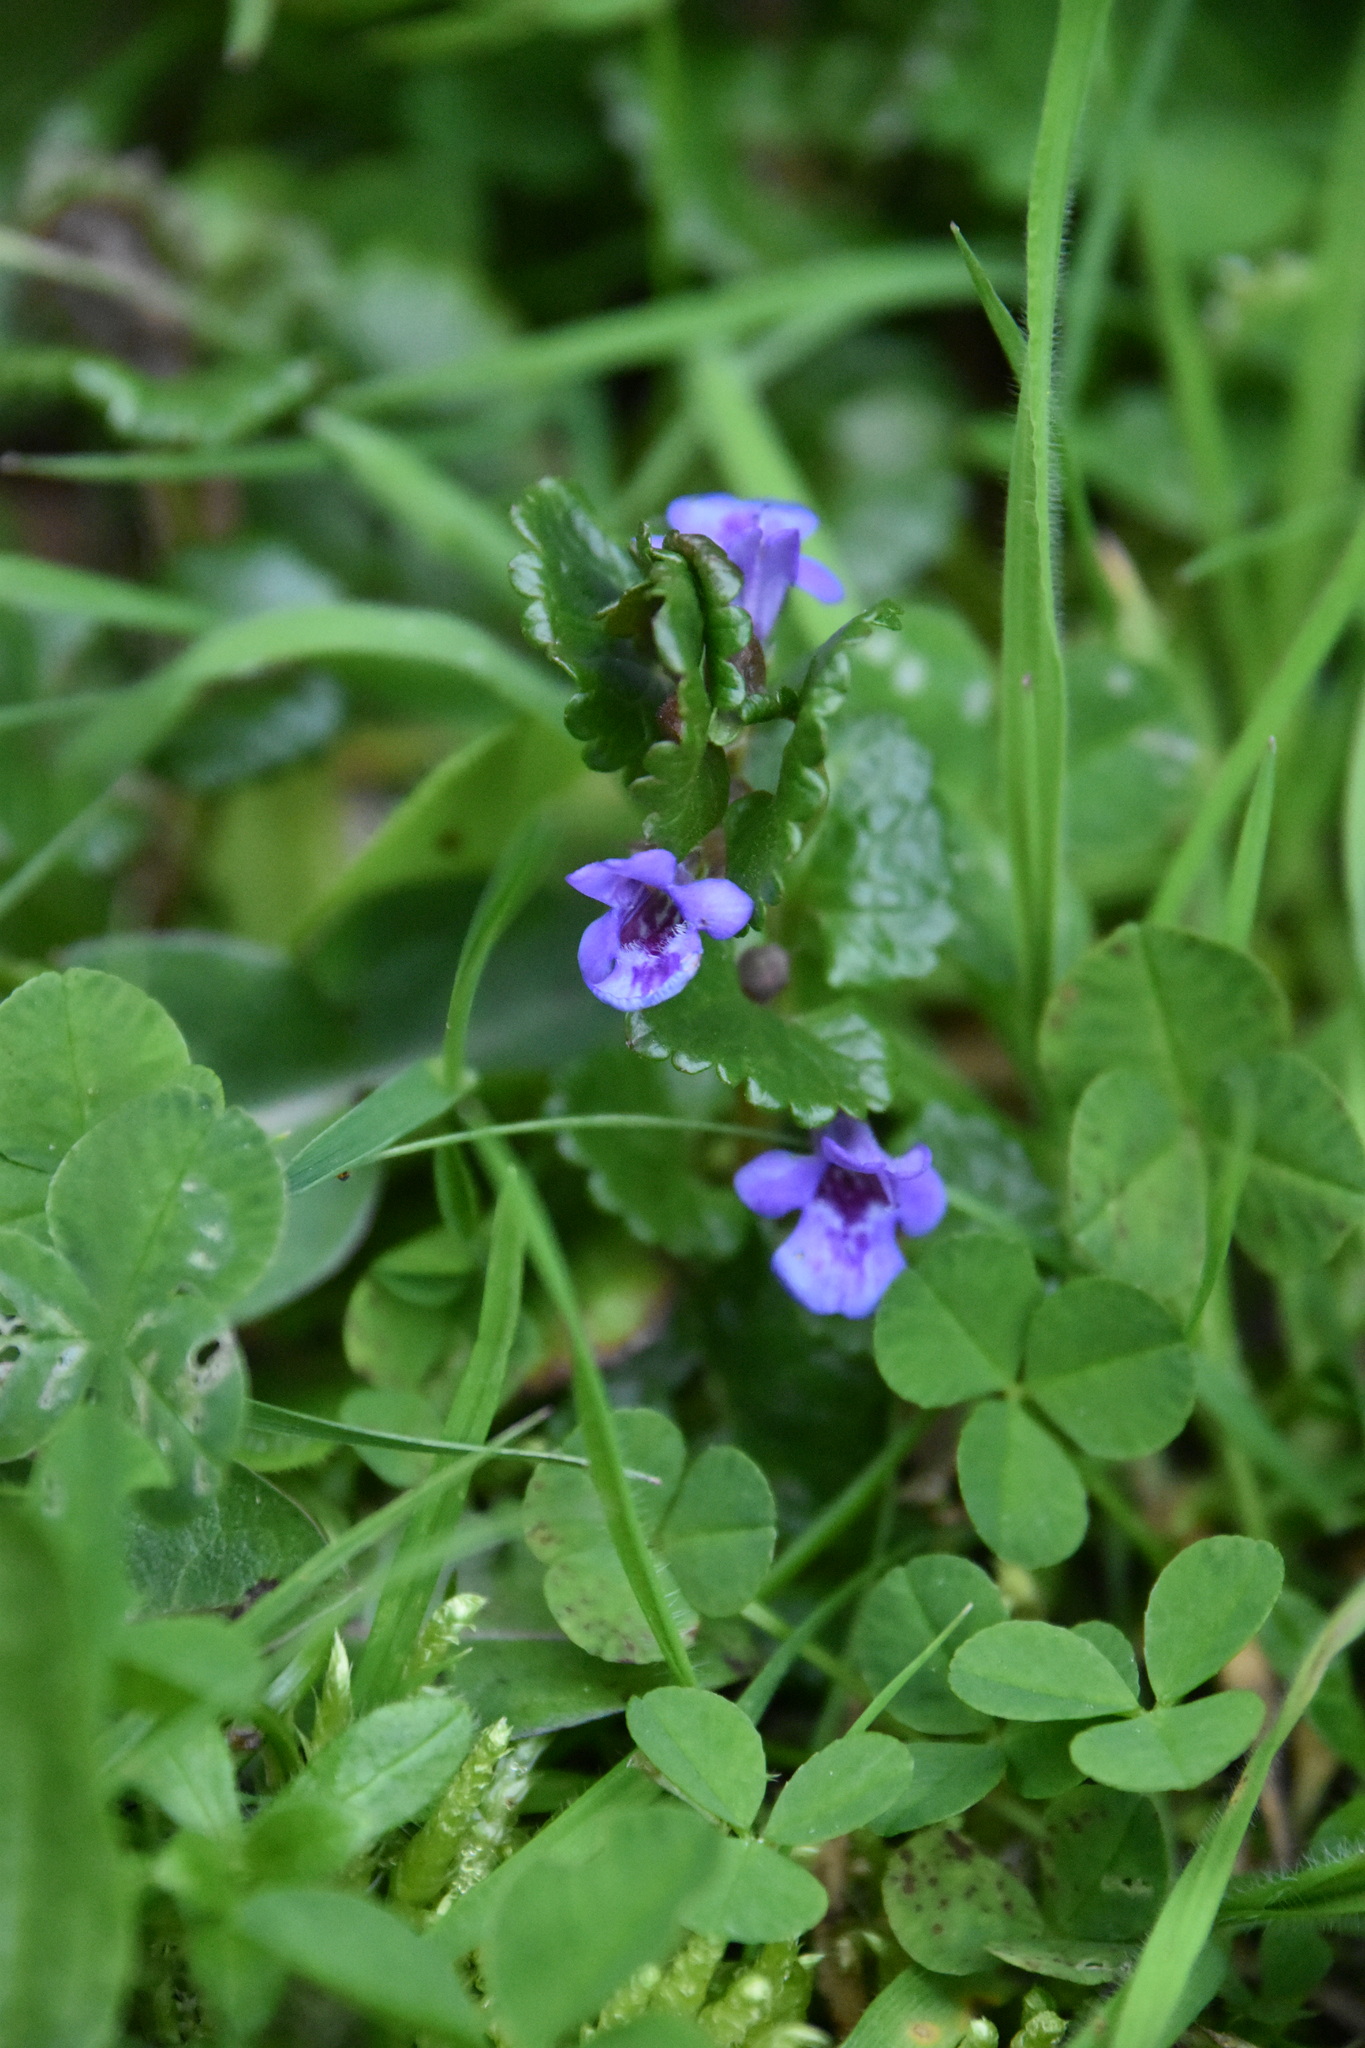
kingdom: Plantae
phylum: Tracheophyta
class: Magnoliopsida
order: Lamiales
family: Lamiaceae
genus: Glechoma
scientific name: Glechoma hederacea
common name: Ground ivy
